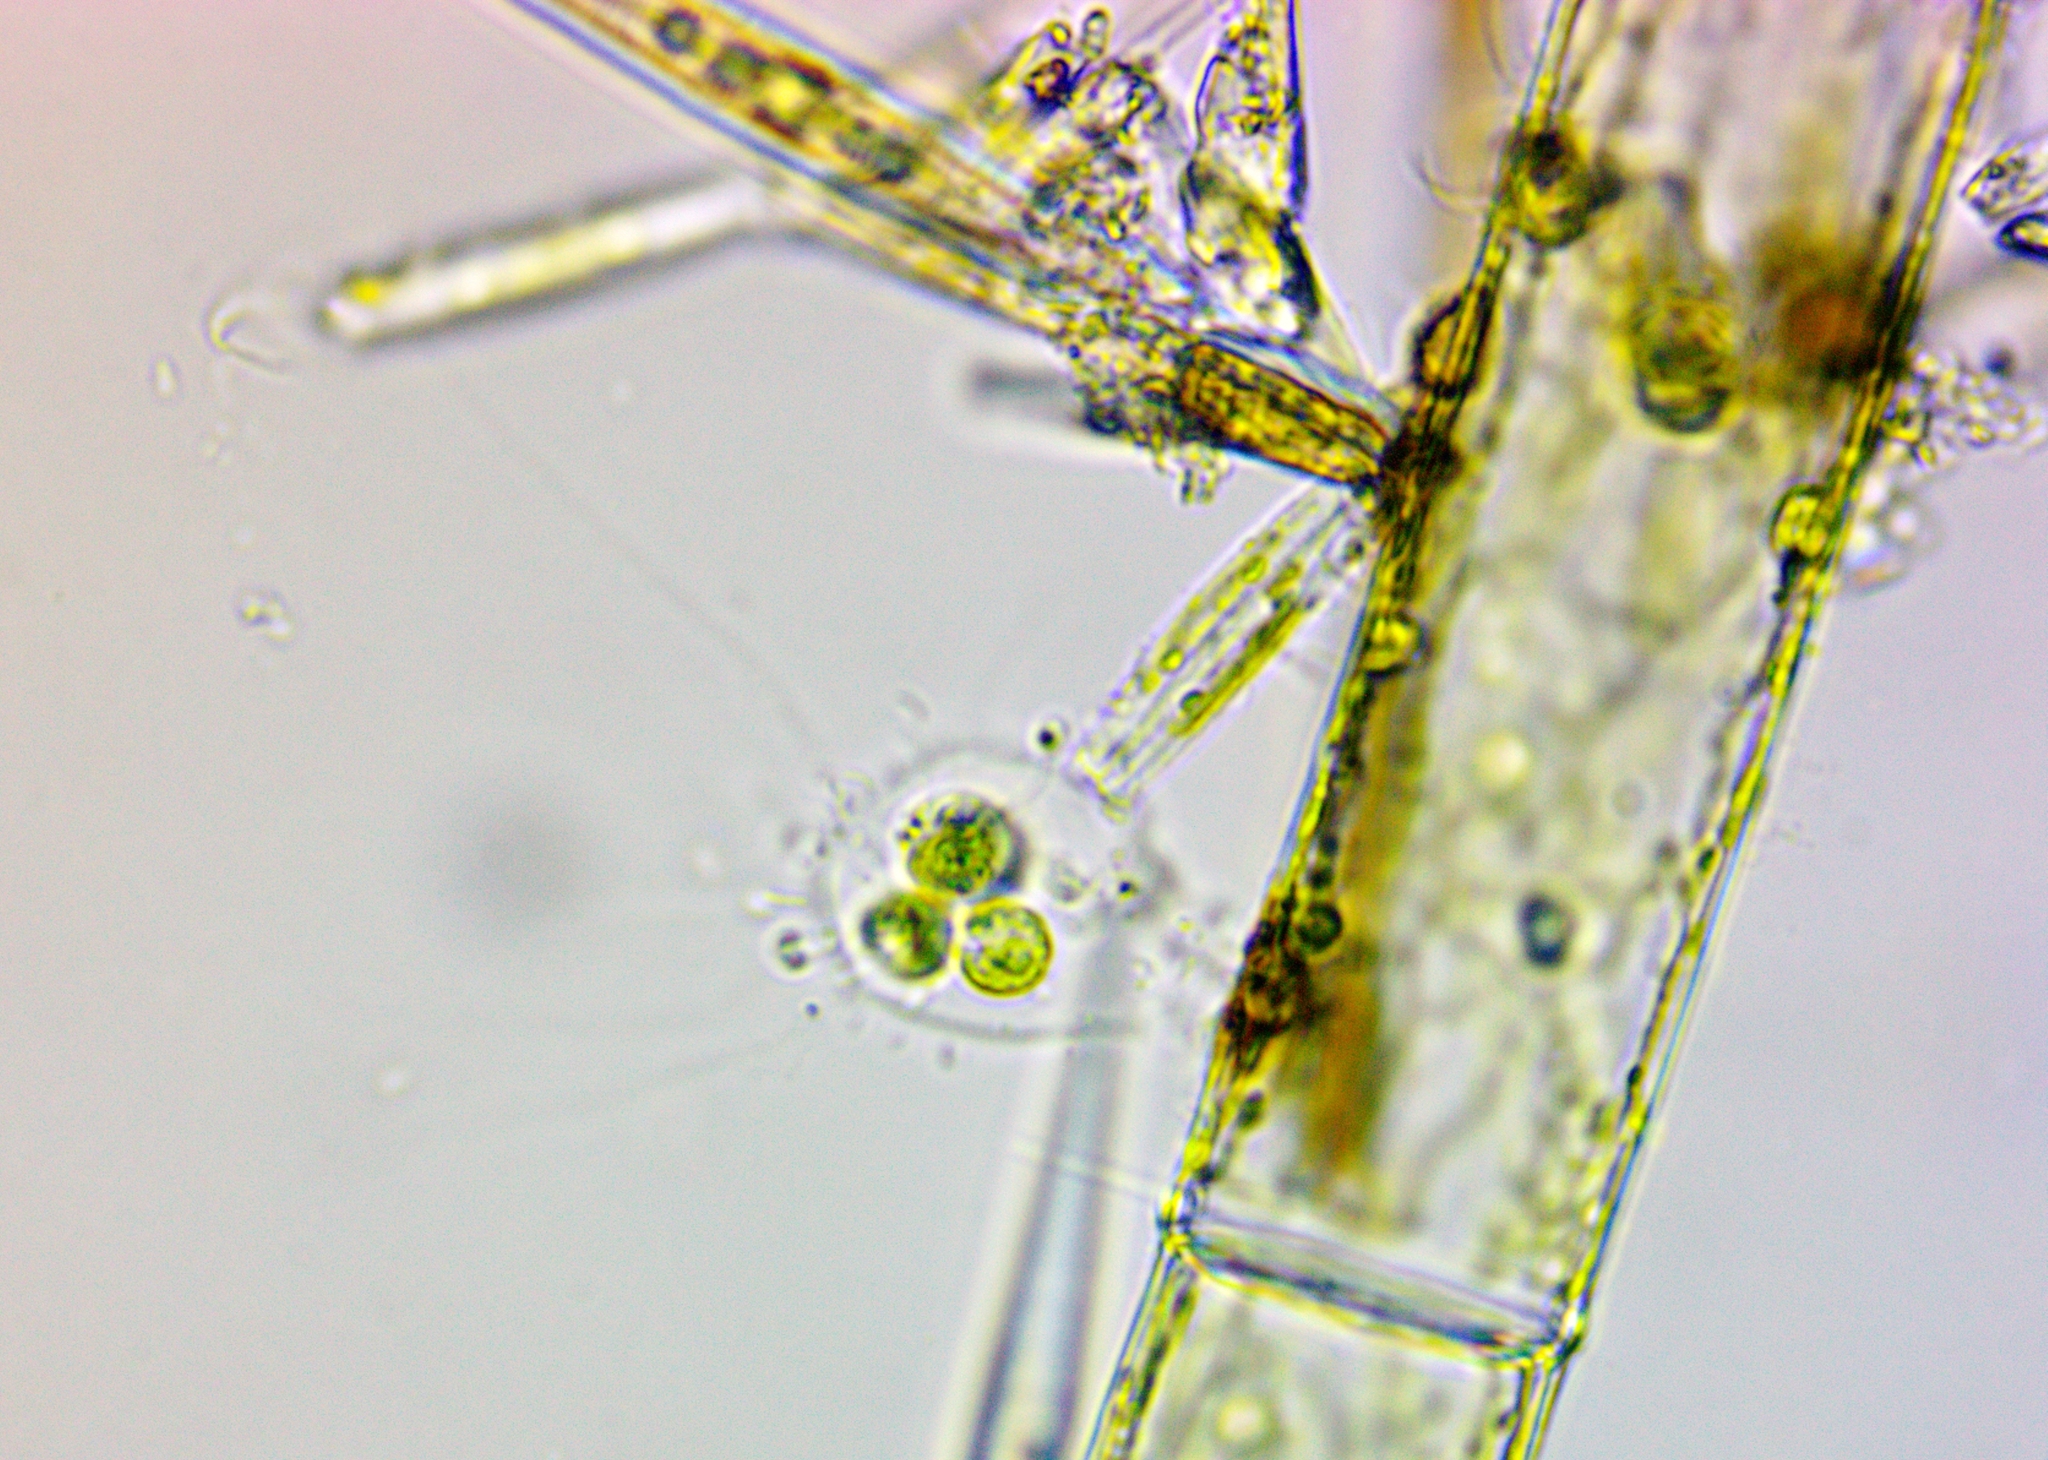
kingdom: Plantae
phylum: Chlorophyta
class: Chlorophyceae
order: Tetrasporales
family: Tetrasporaceae
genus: Apiocystis
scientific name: Apiocystis brauniana
